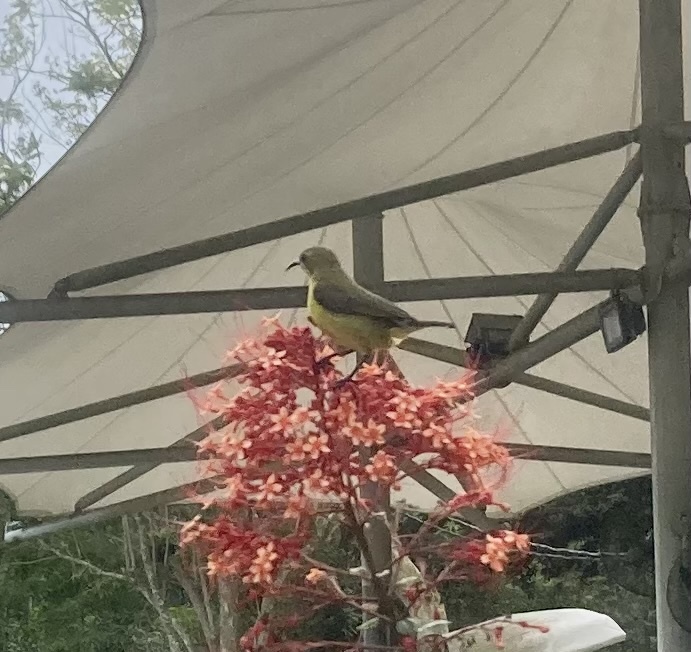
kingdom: Animalia
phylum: Chordata
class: Aves
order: Passeriformes
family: Nectariniidae
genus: Cinnyris
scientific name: Cinnyris
